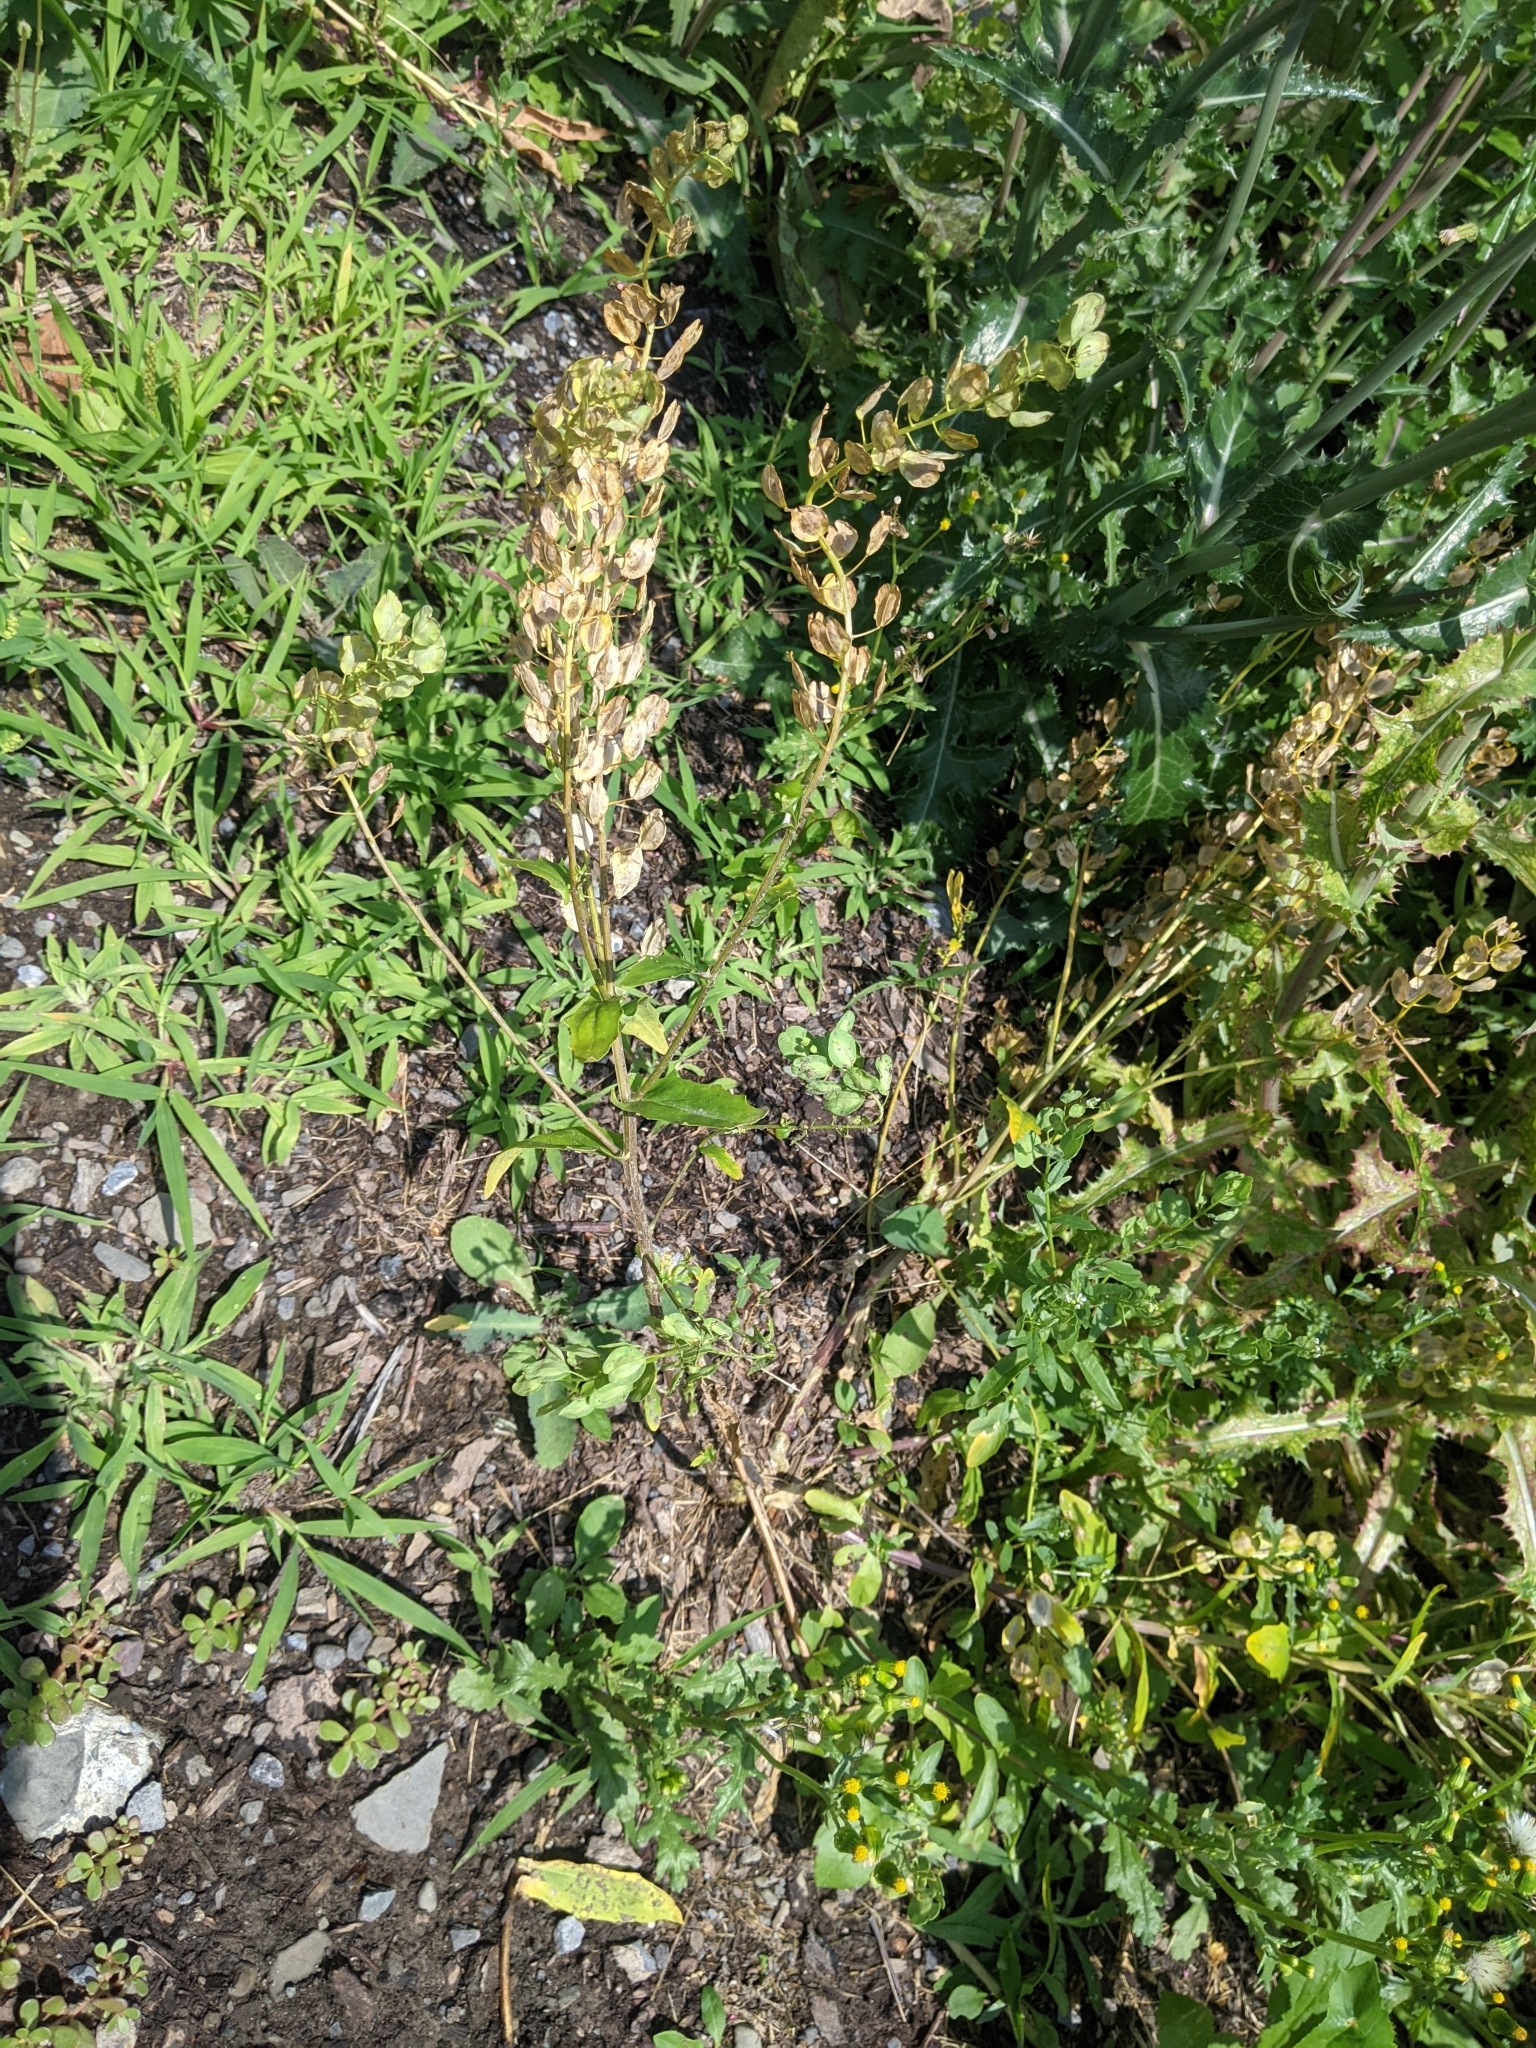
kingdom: Plantae
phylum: Tracheophyta
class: Magnoliopsida
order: Brassicales
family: Brassicaceae
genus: Thlaspi
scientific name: Thlaspi arvense
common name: Field pennycress
